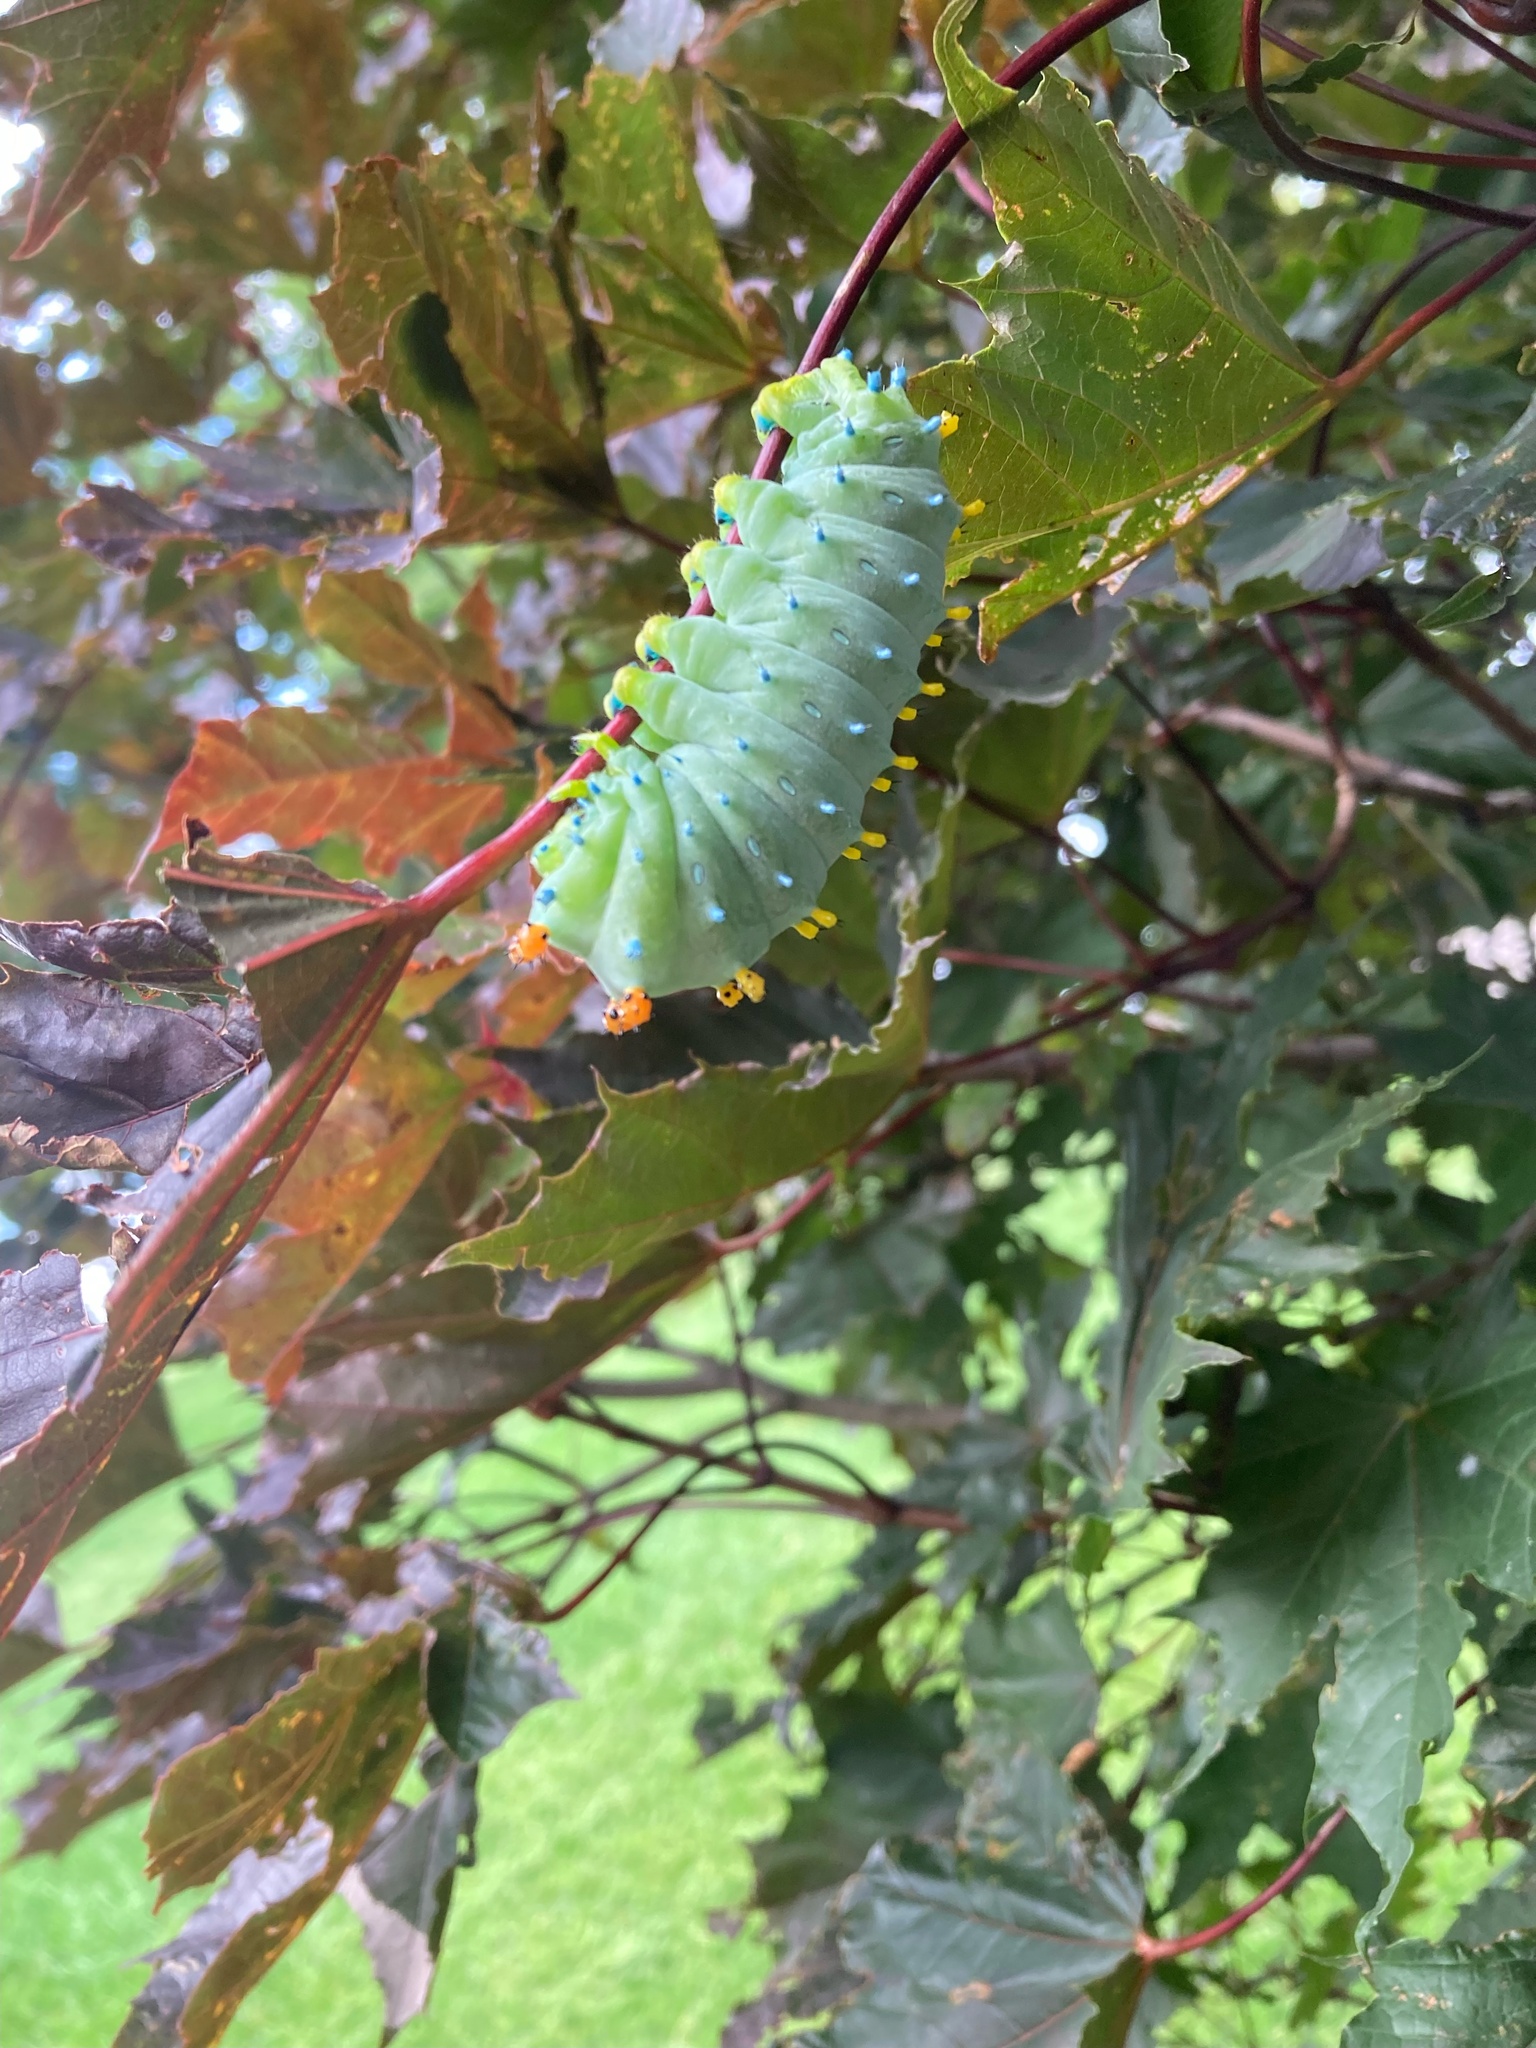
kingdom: Animalia
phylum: Arthropoda
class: Insecta
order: Lepidoptera
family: Saturniidae
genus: Hyalophora
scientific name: Hyalophora cecropia
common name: Cecropia silkmoth
